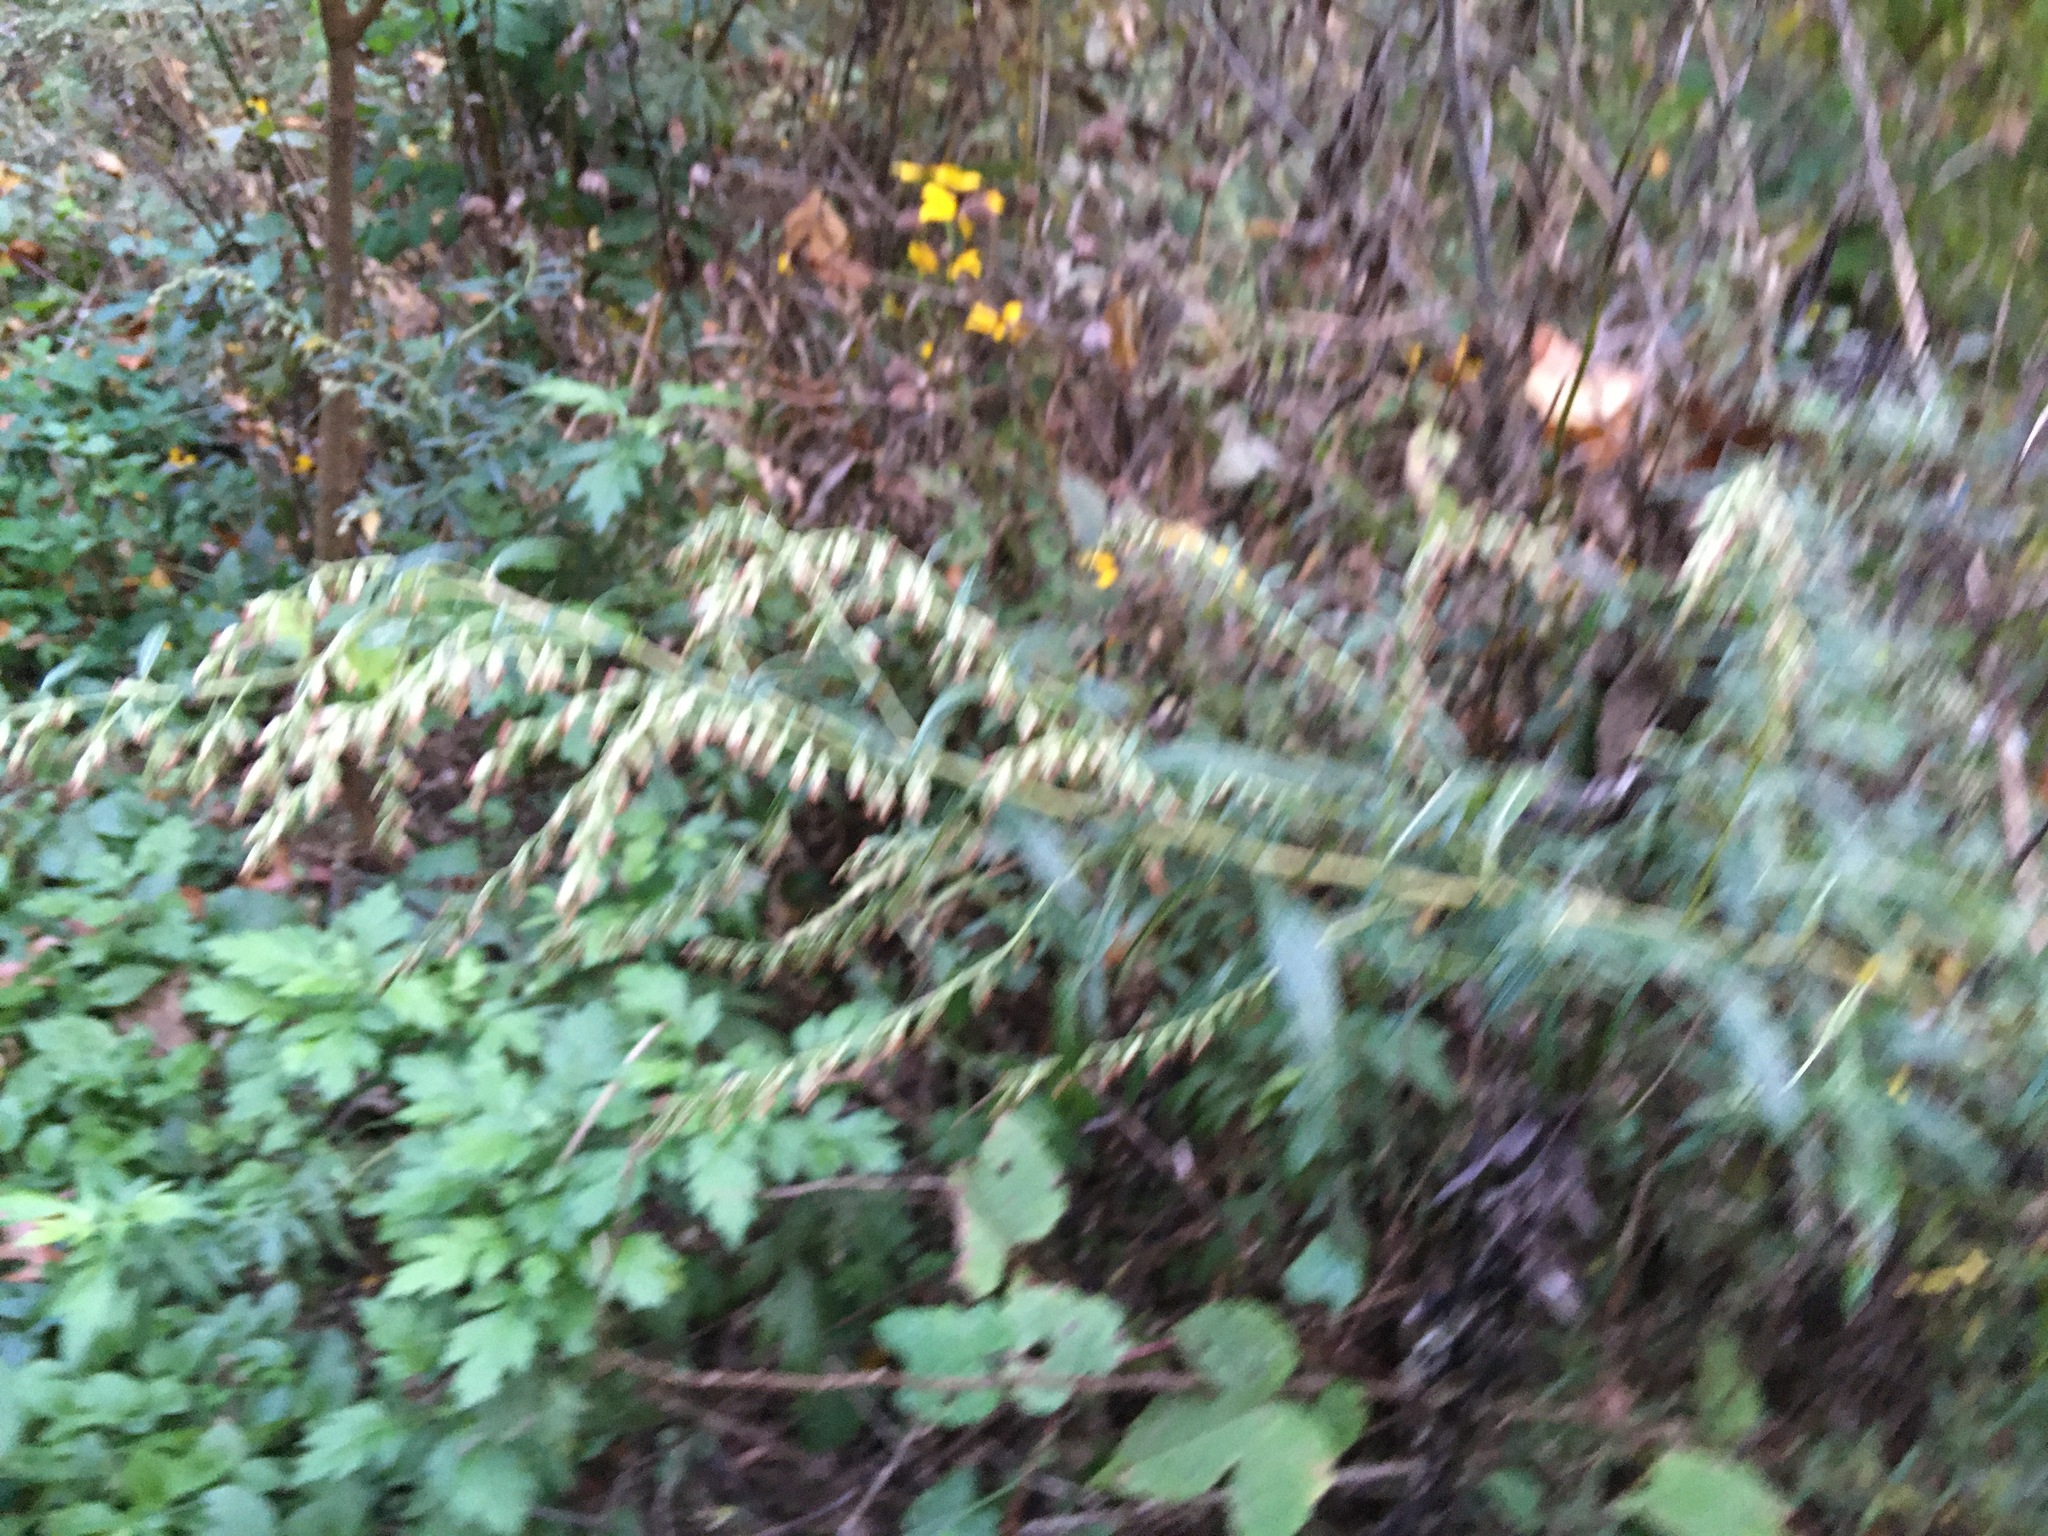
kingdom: Plantae
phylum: Tracheophyta
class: Magnoliopsida
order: Asterales
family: Asteraceae
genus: Artemisia
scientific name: Artemisia vulgaris
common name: Mugwort
